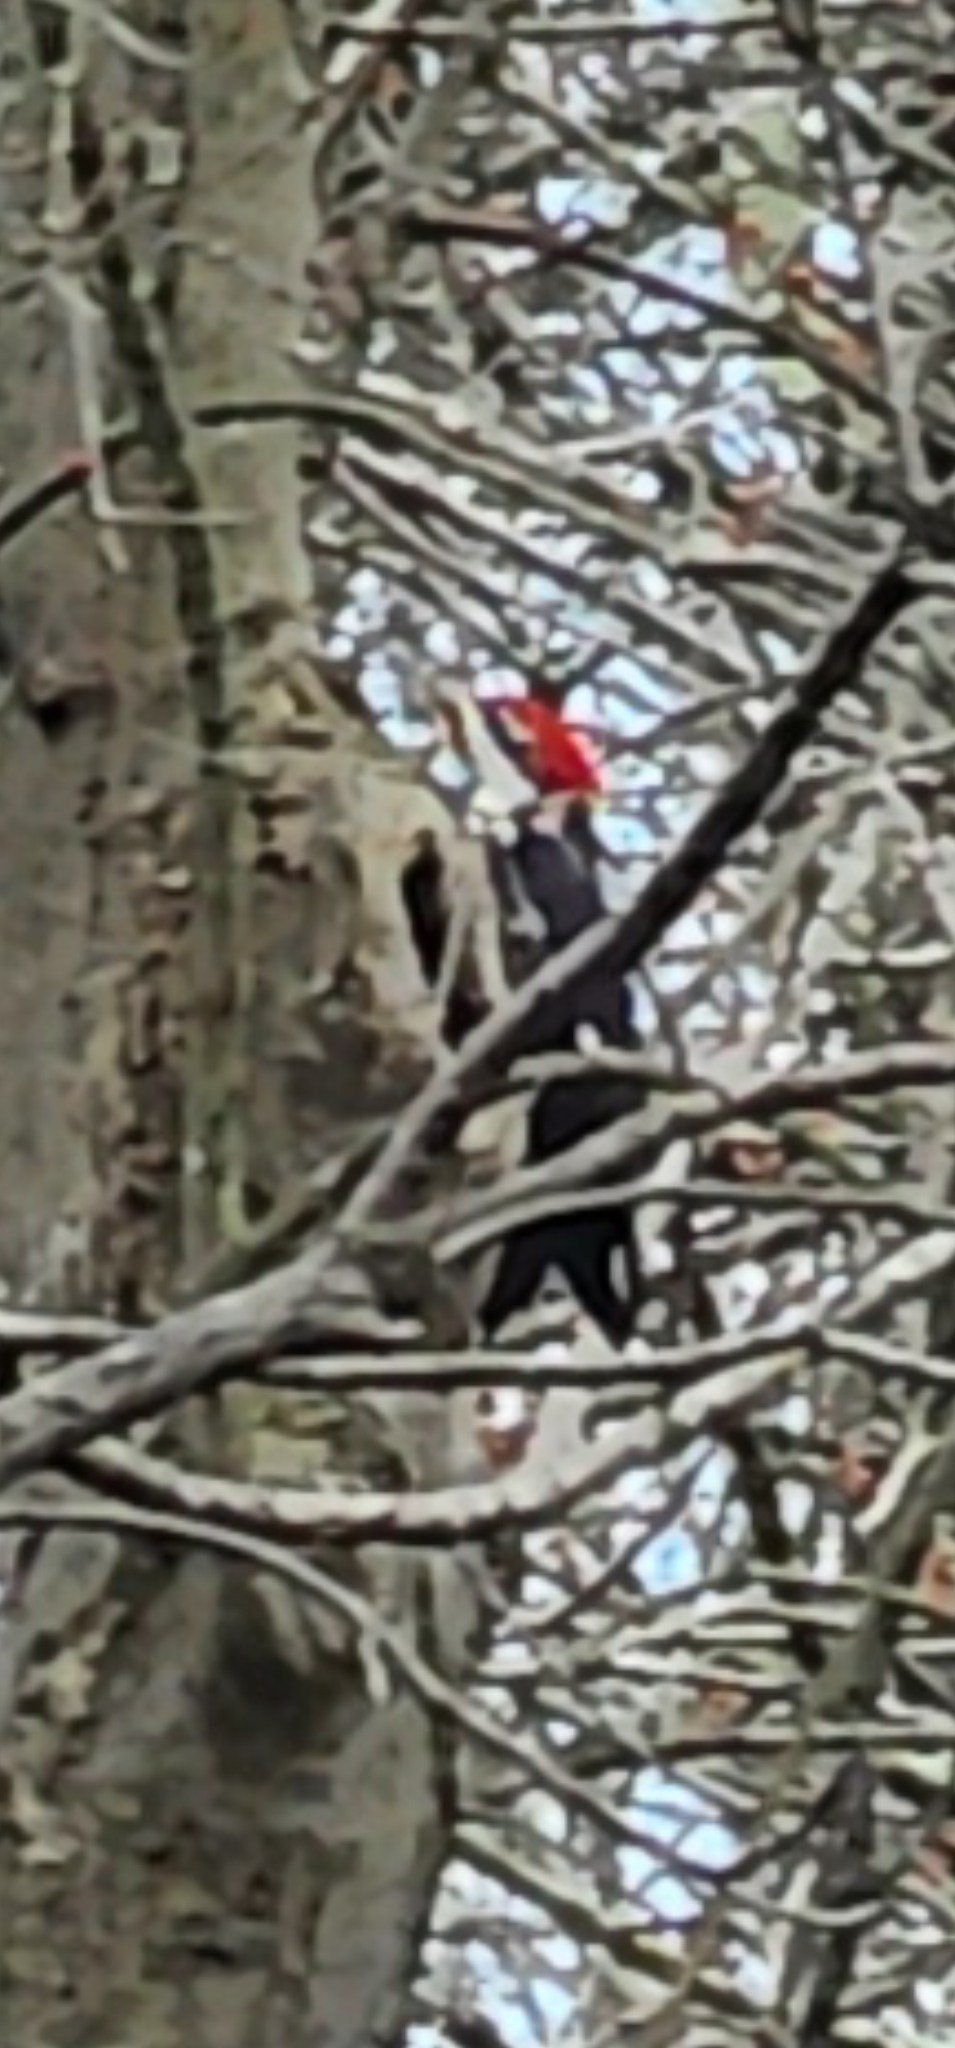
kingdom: Animalia
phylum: Chordata
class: Aves
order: Piciformes
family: Picidae
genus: Dryocopus
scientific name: Dryocopus pileatus
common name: Pileated woodpecker
